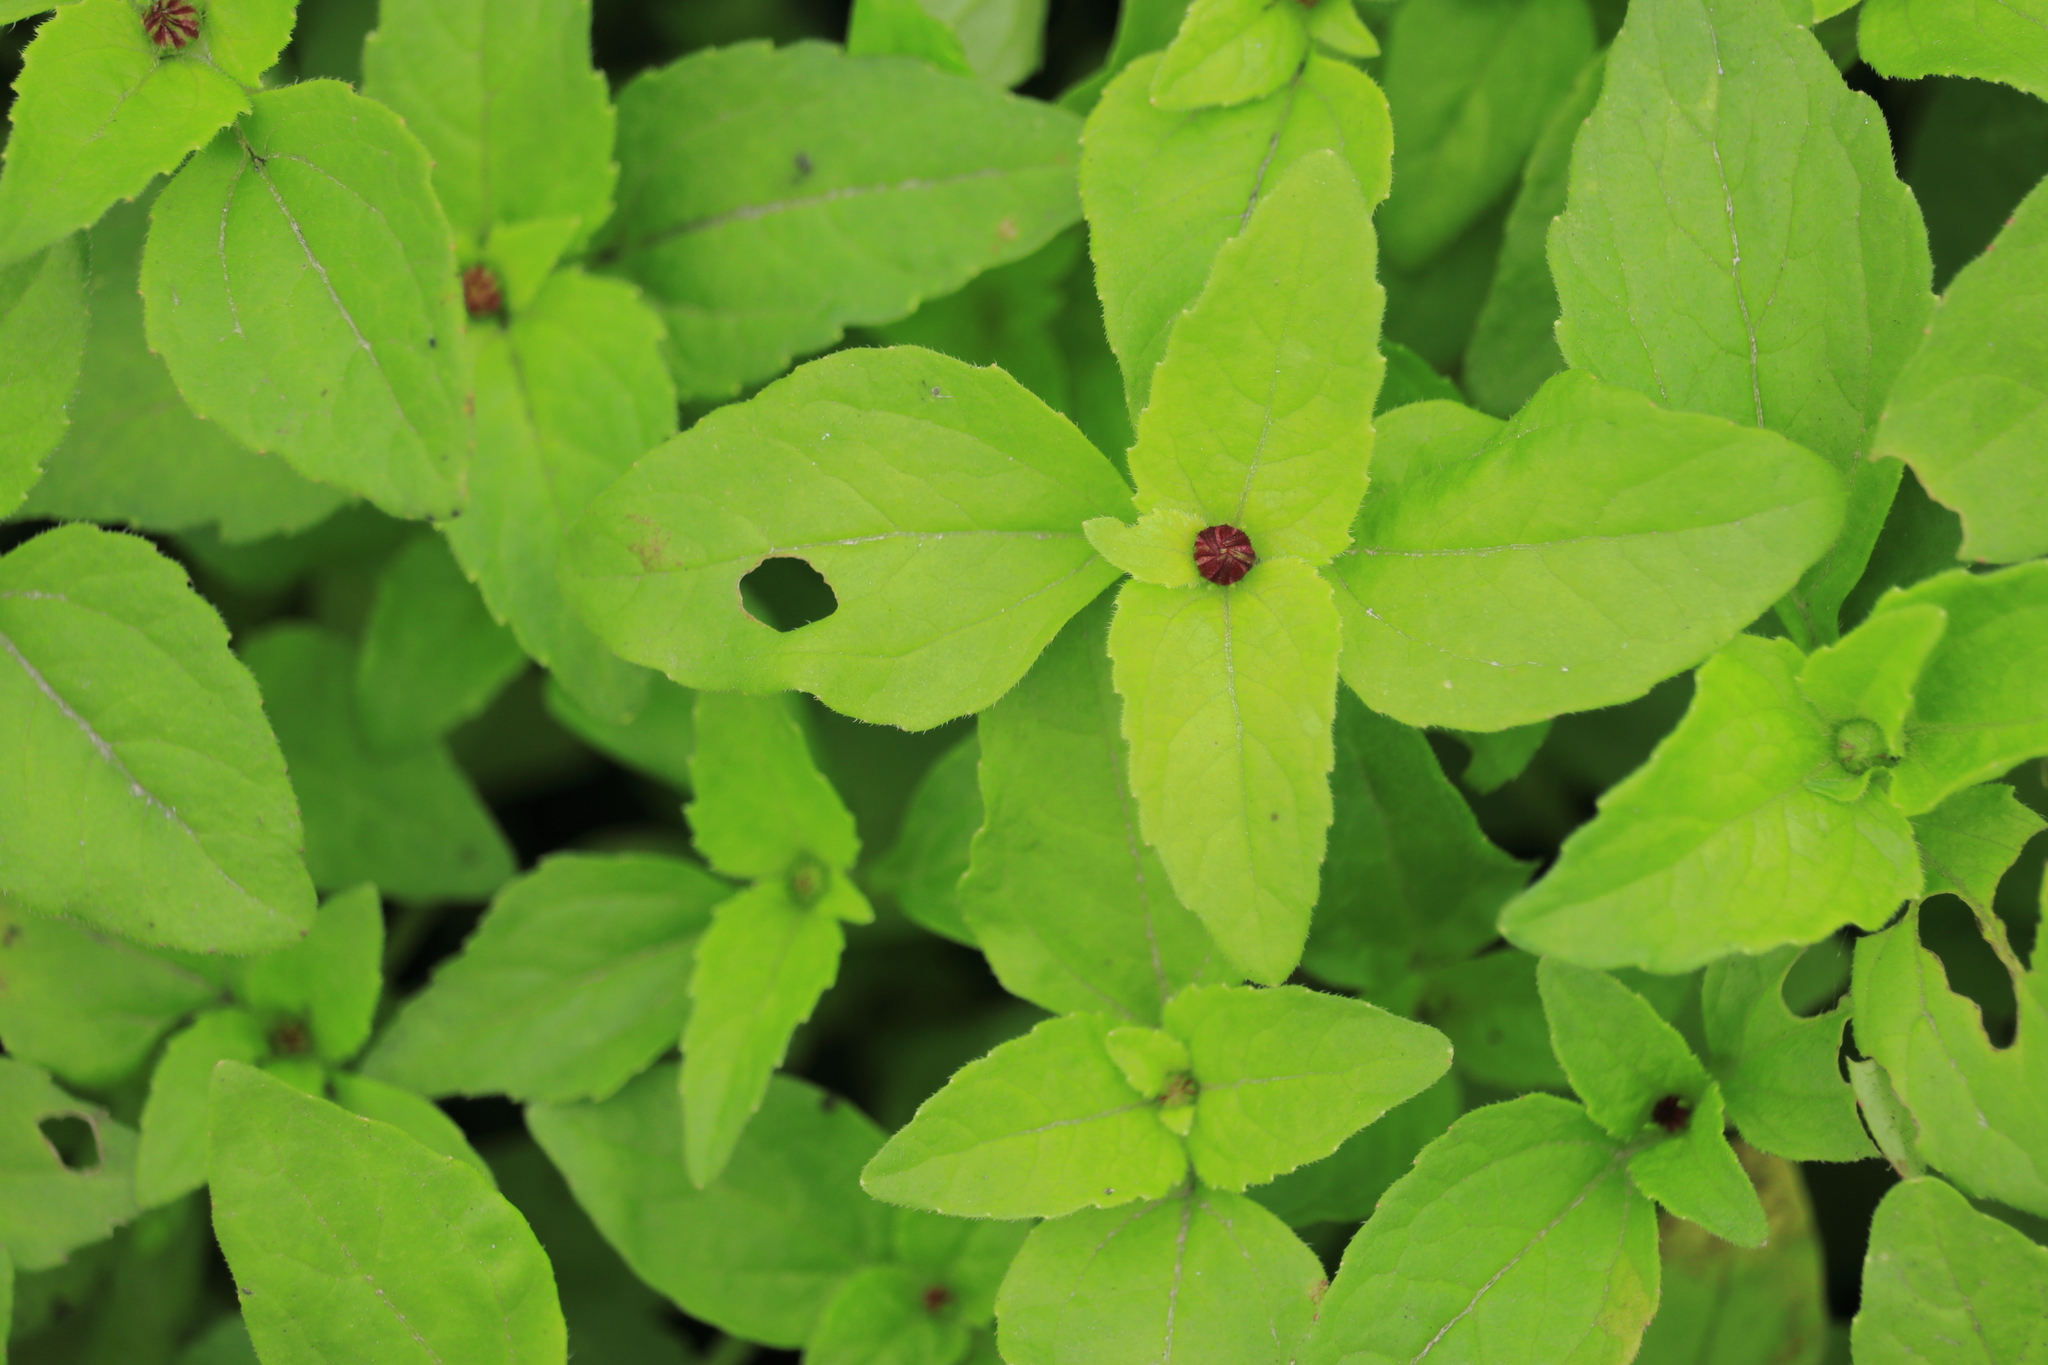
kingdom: Plantae
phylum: Tracheophyta
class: Magnoliopsida
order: Asterales
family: Asteraceae
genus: Galinsoga
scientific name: Galinsoga caligensis
